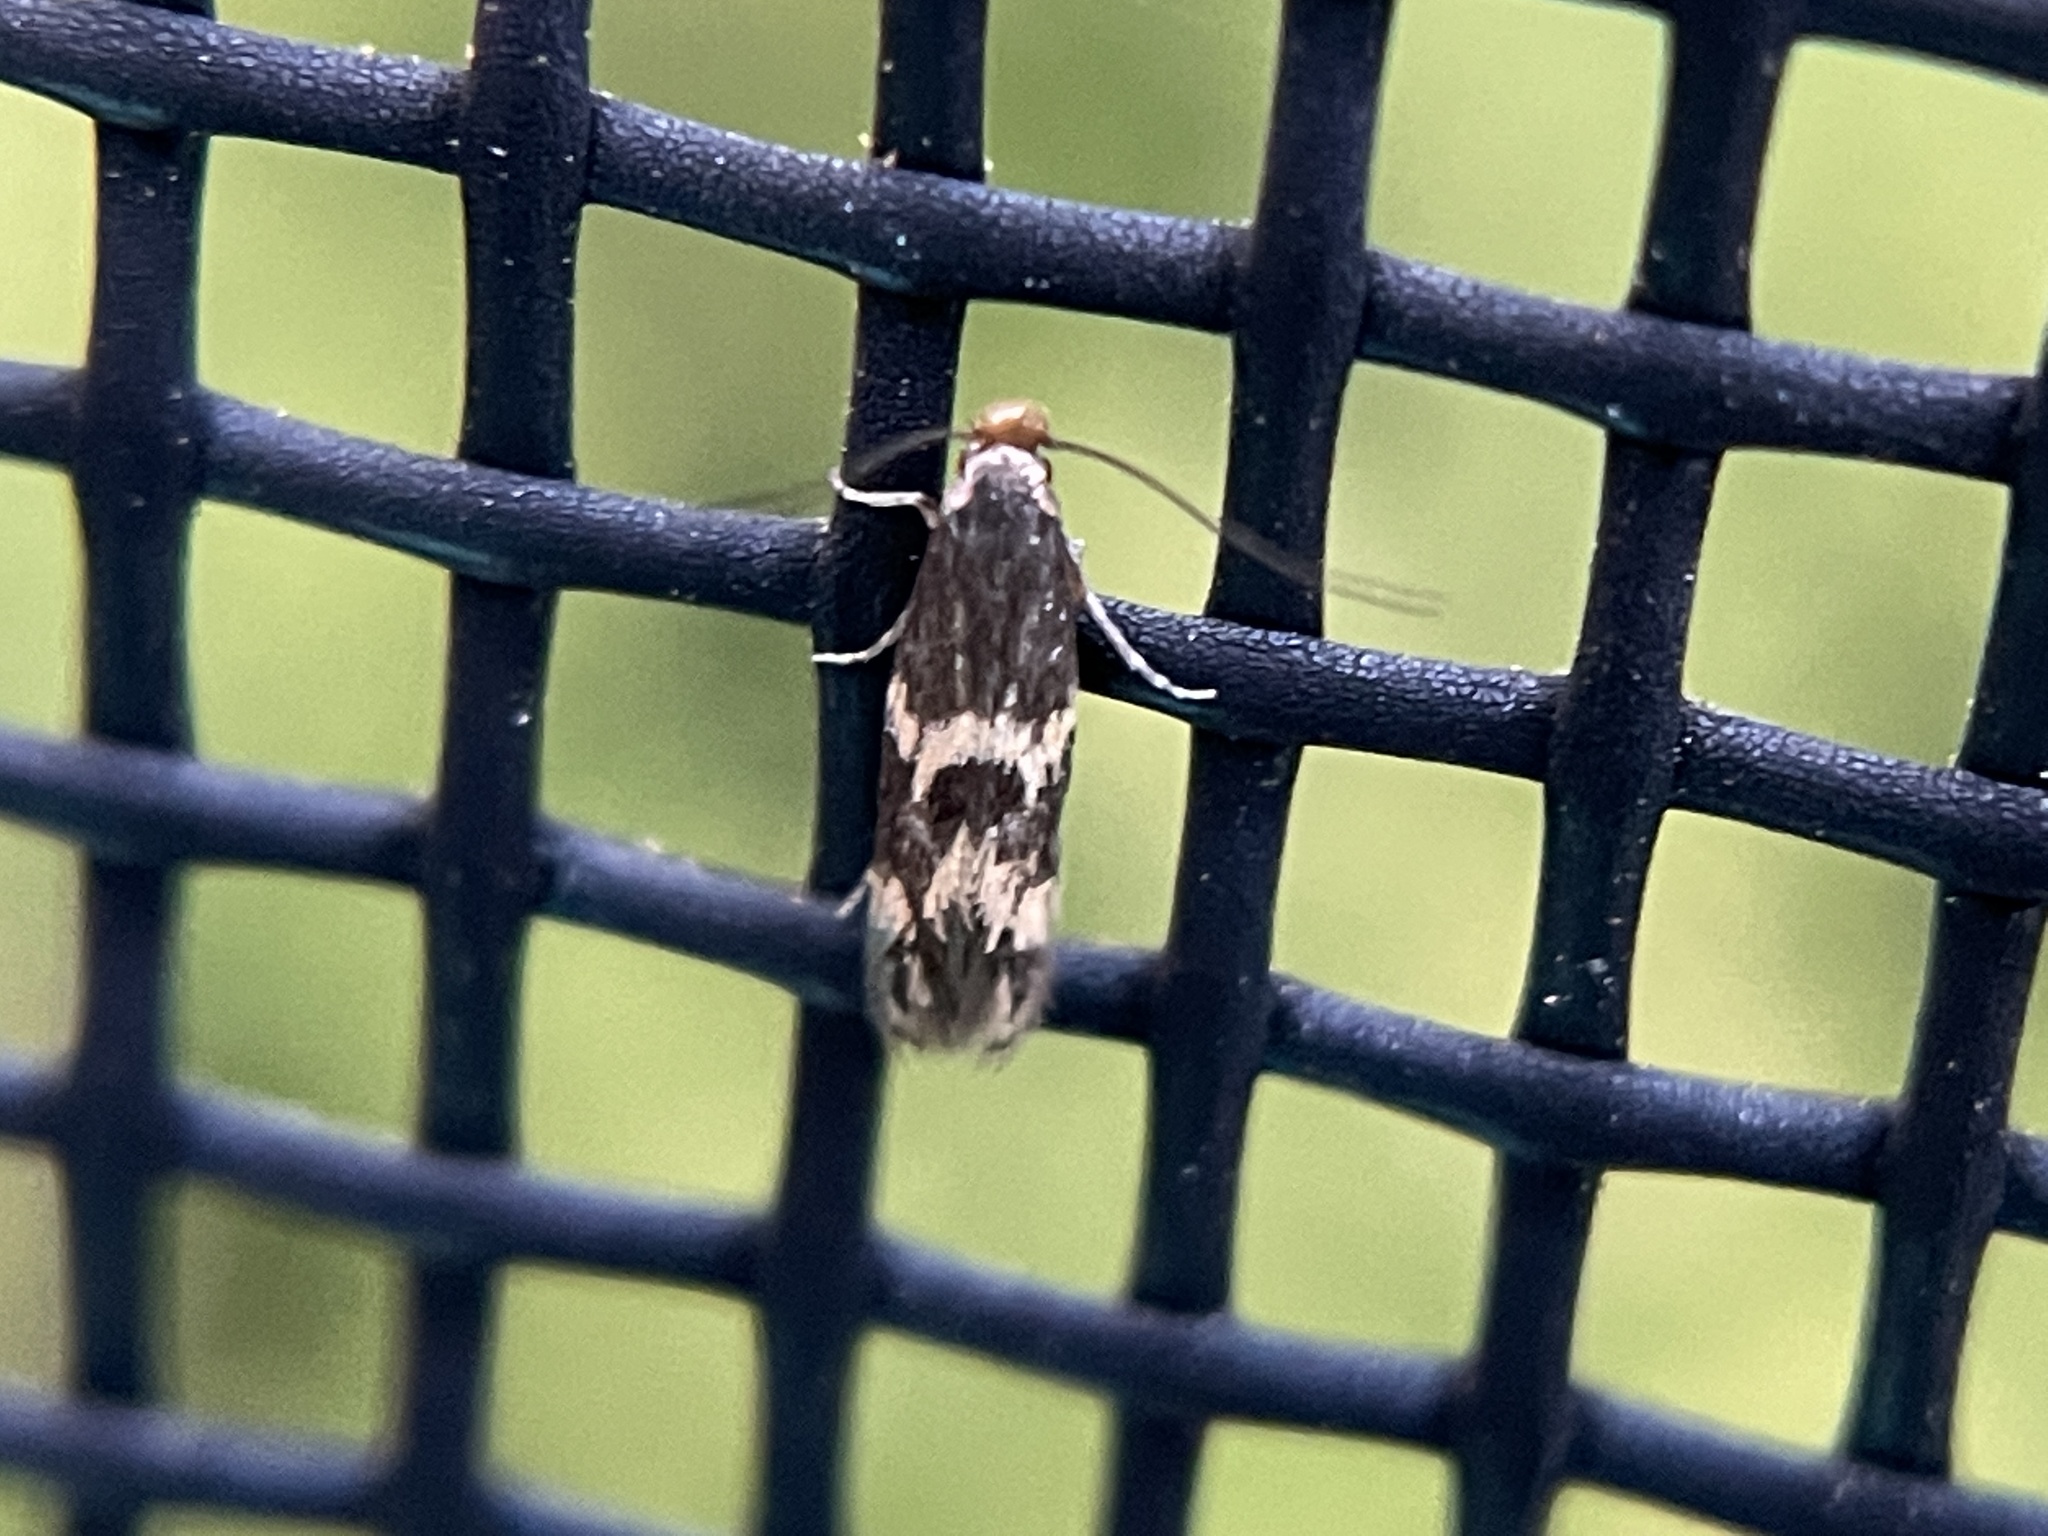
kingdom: Animalia
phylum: Arthropoda
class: Insecta
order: Lepidoptera
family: Tineidae
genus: Oinophila
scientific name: Oinophila v-flava
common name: Yellow v moth
